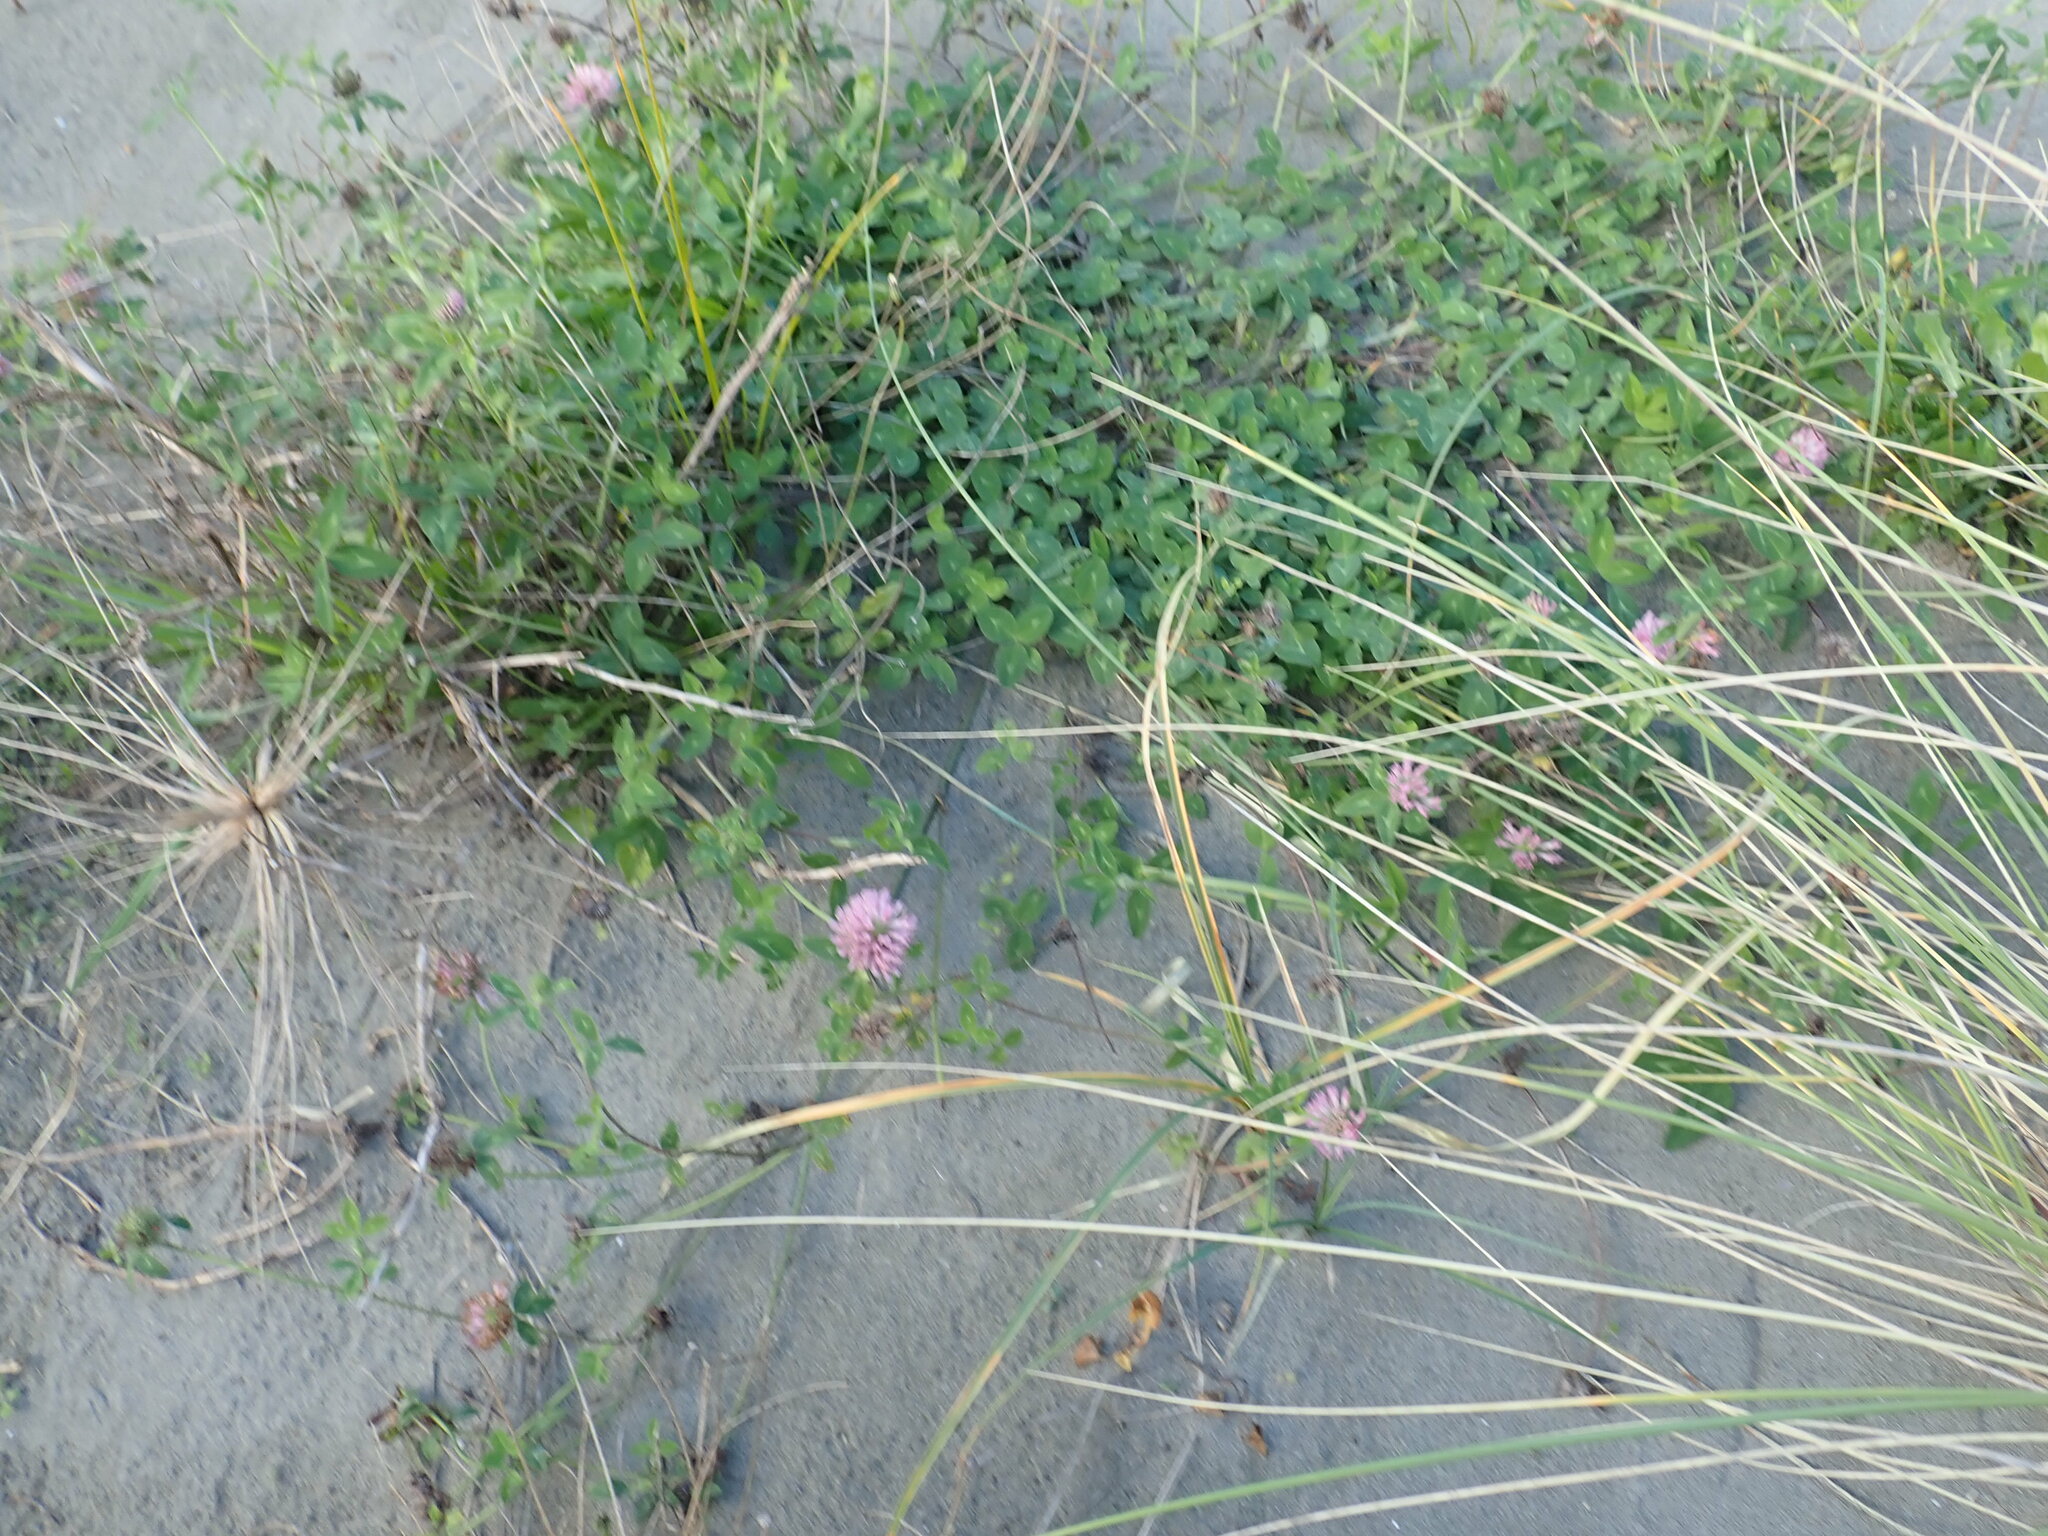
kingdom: Plantae
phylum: Tracheophyta
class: Magnoliopsida
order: Fabales
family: Fabaceae
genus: Trifolium
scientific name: Trifolium pratense
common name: Red clover
